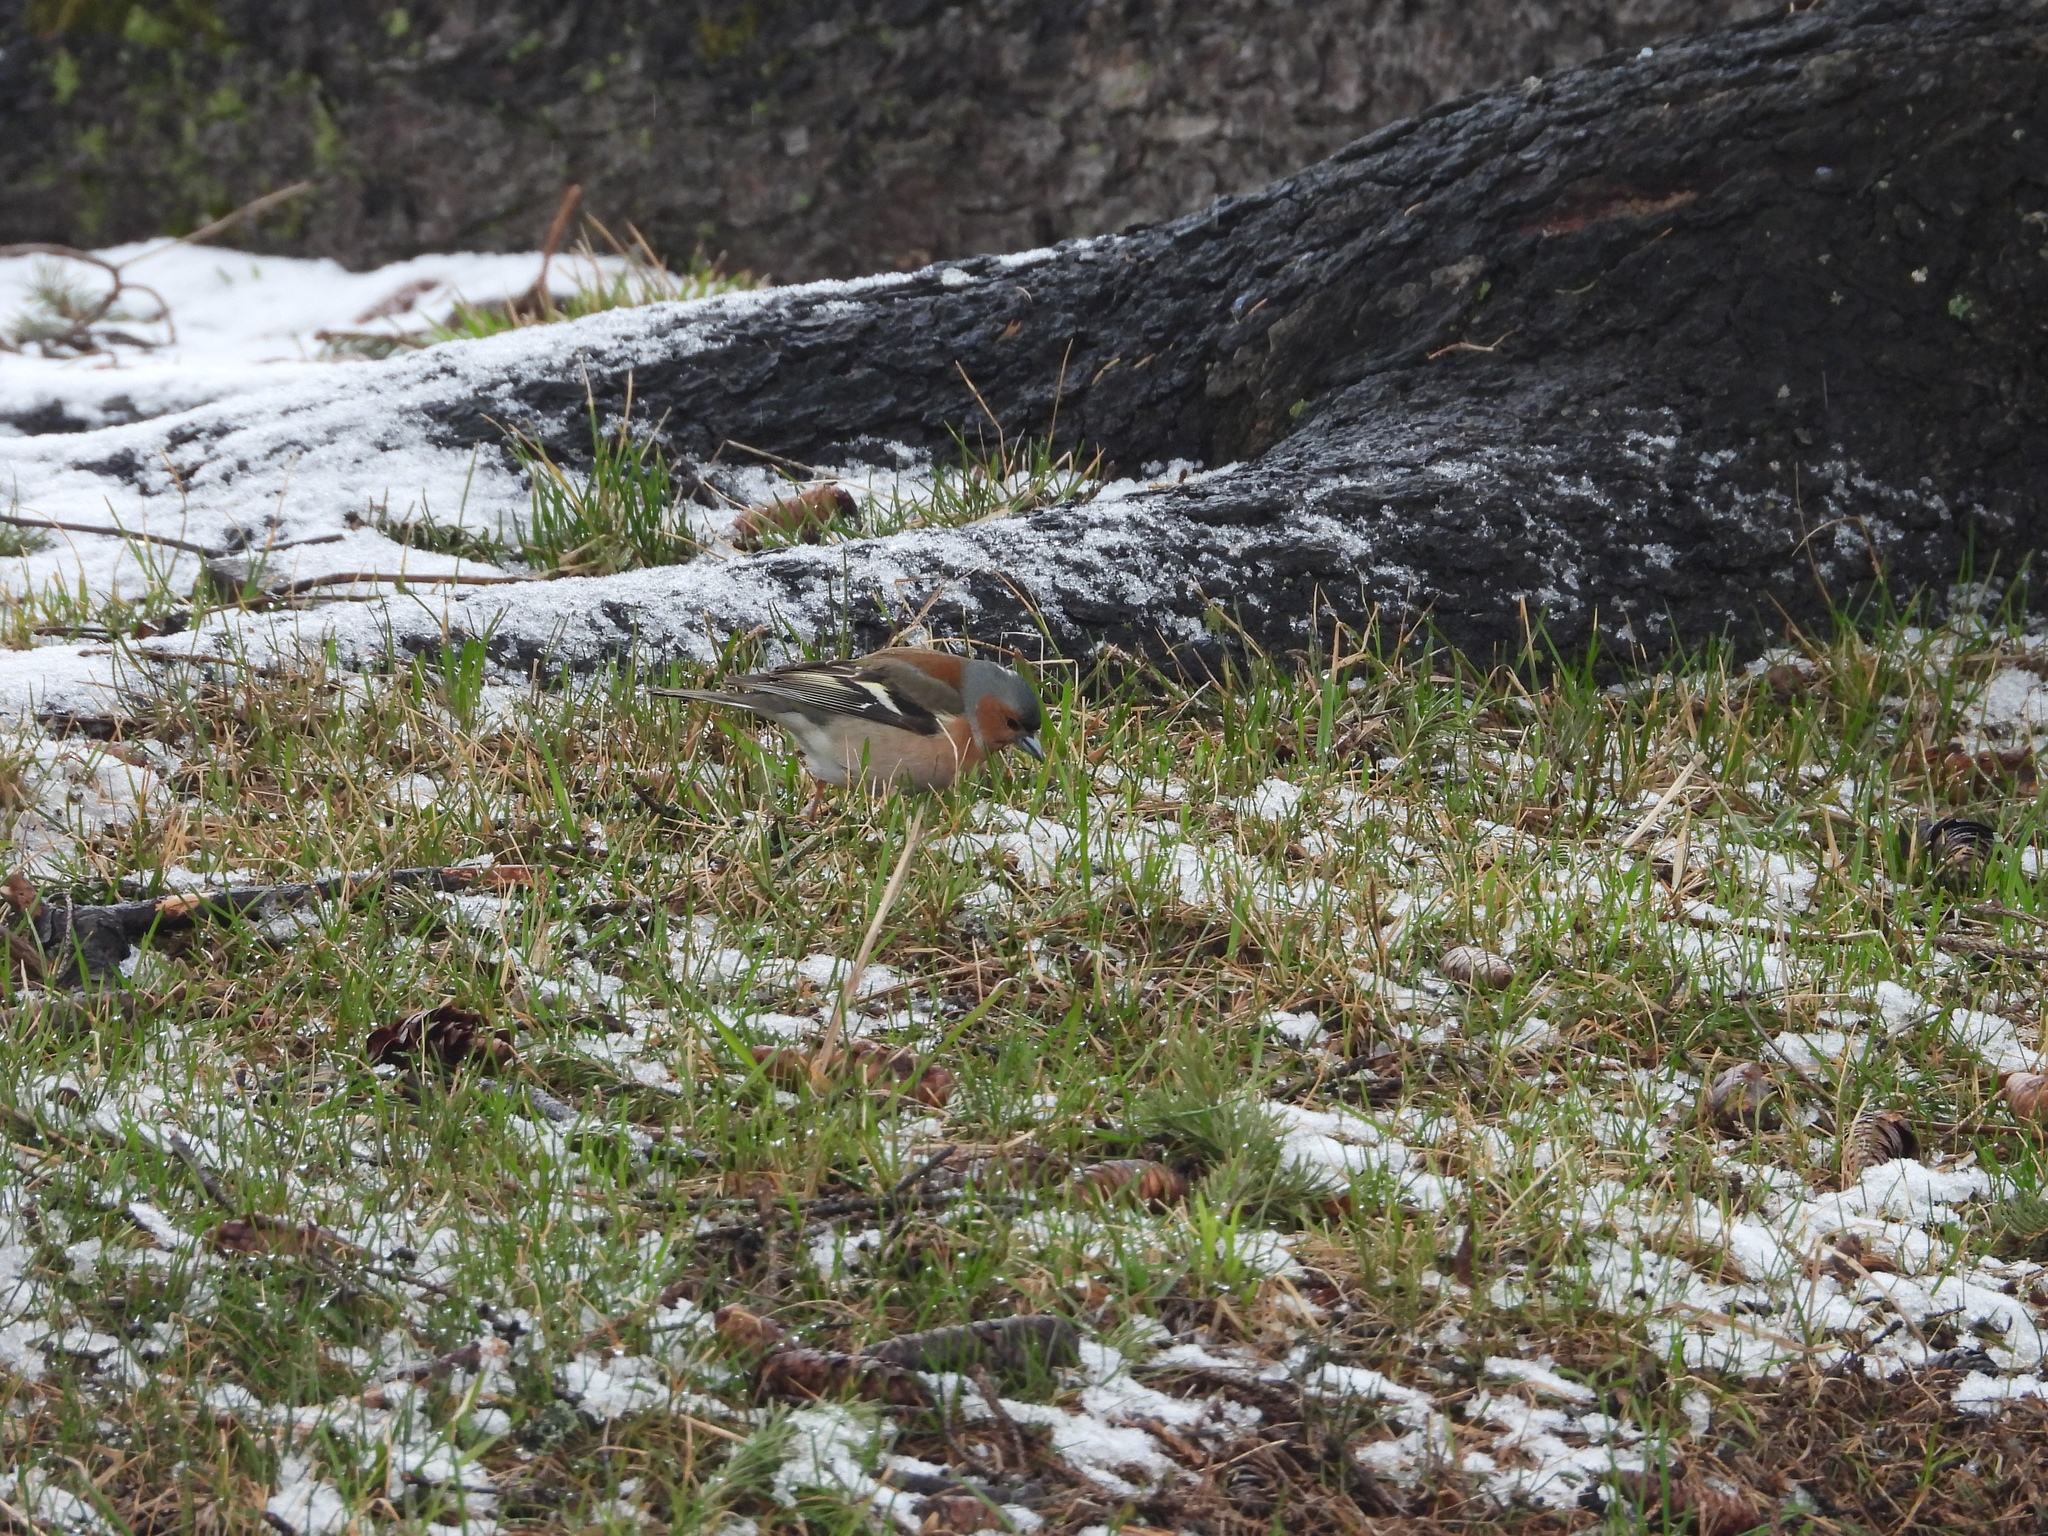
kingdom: Animalia
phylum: Chordata
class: Aves
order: Passeriformes
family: Fringillidae
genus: Fringilla
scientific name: Fringilla coelebs
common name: Common chaffinch
